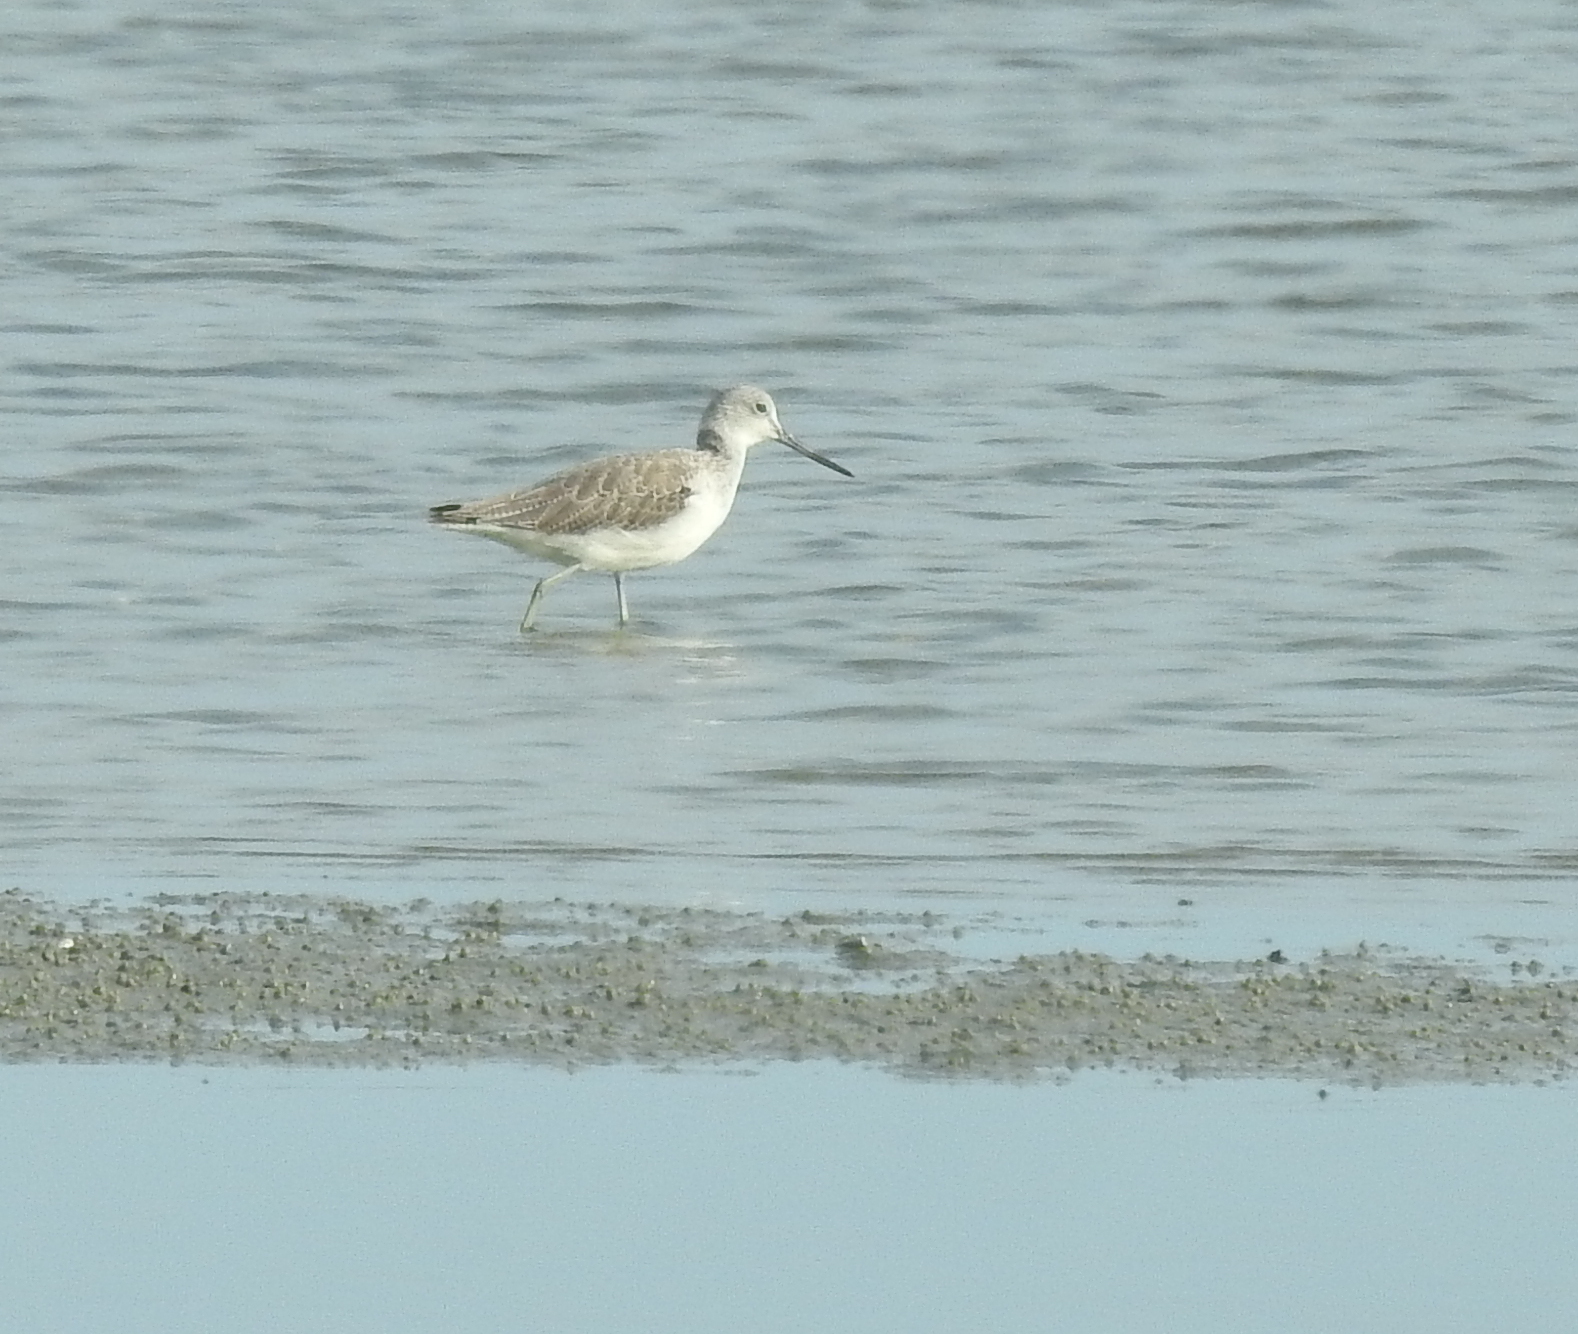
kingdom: Animalia
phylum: Chordata
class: Aves
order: Charadriiformes
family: Scolopacidae
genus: Tringa
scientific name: Tringa nebularia
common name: Common greenshank
